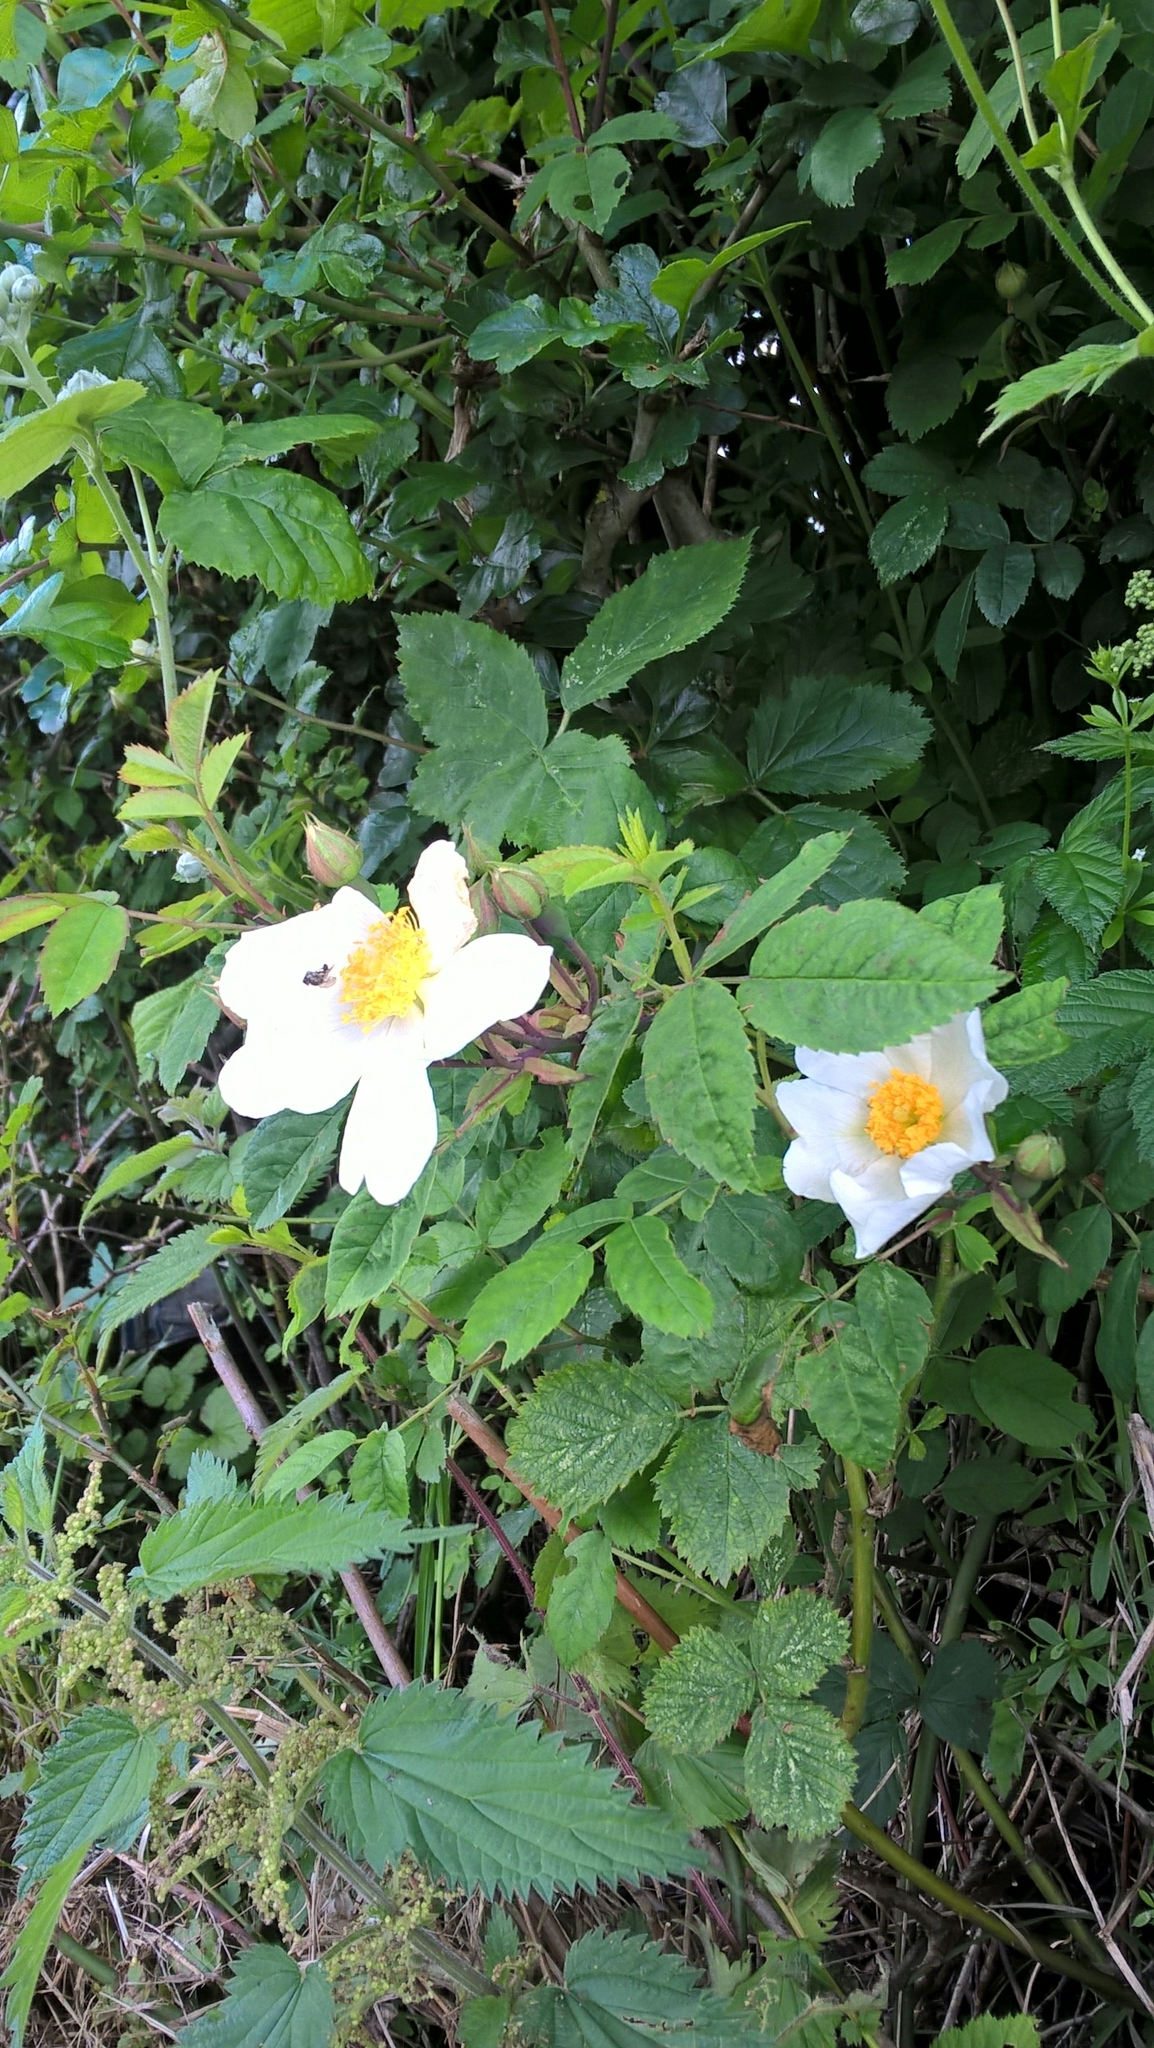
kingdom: Plantae
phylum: Tracheophyta
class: Magnoliopsida
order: Rosales
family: Rosaceae
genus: Rosa
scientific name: Rosa arvensis
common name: Field rose
